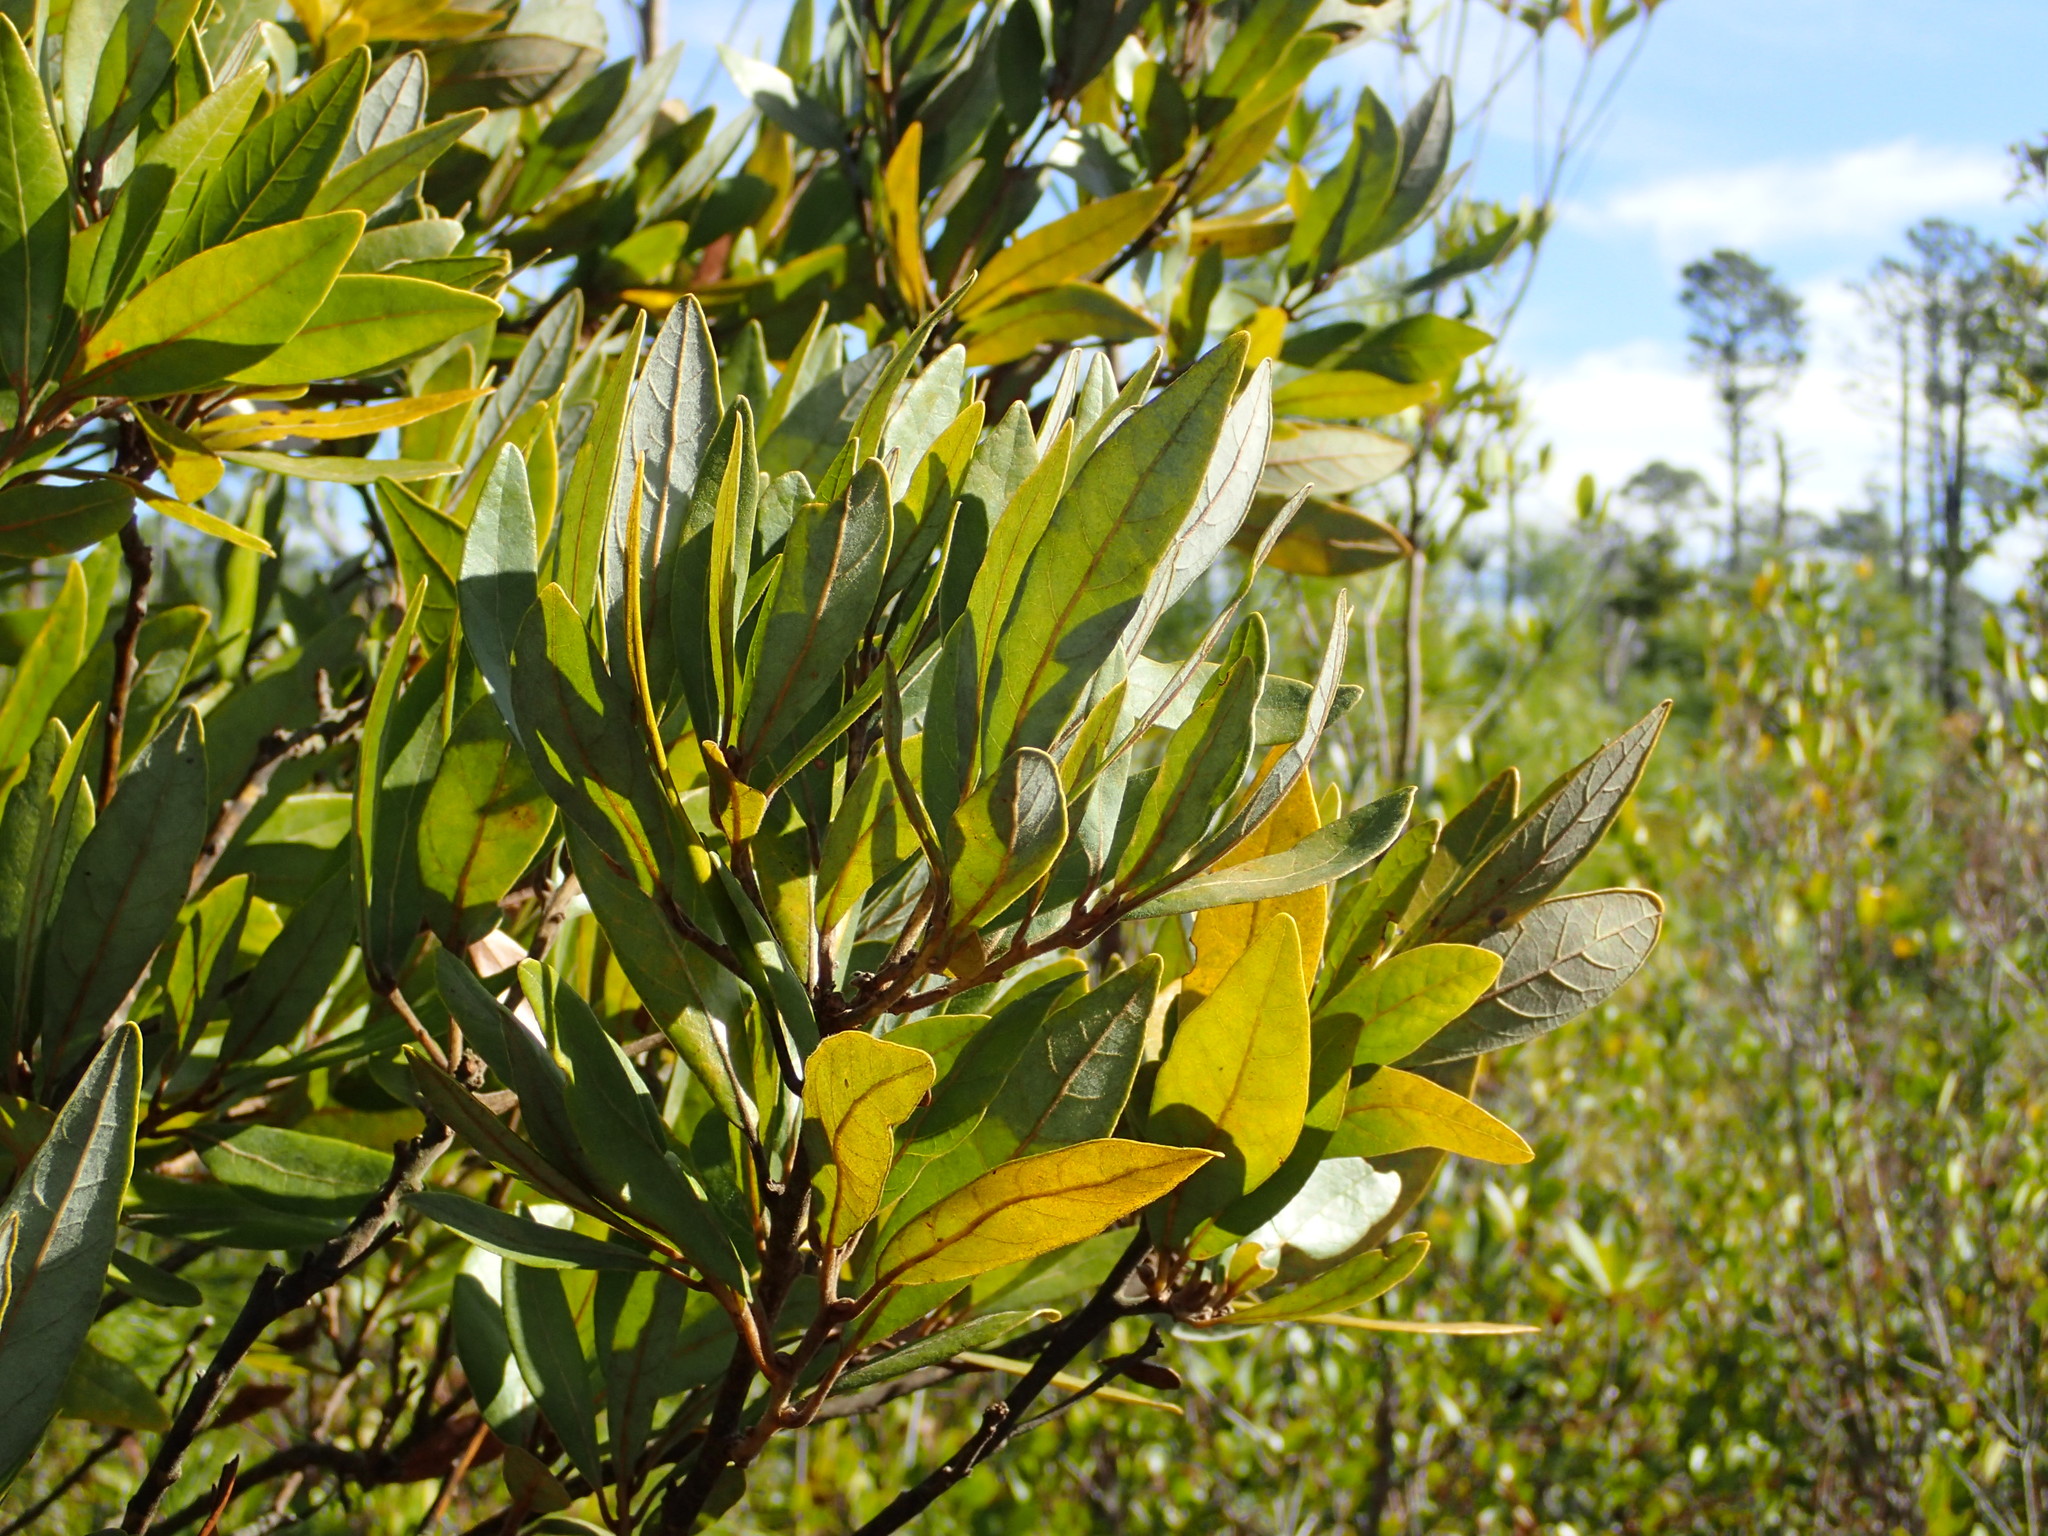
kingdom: Plantae
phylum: Tracheophyta
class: Magnoliopsida
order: Laurales
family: Lauraceae
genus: Persea
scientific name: Persea palustris
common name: Swampbay
